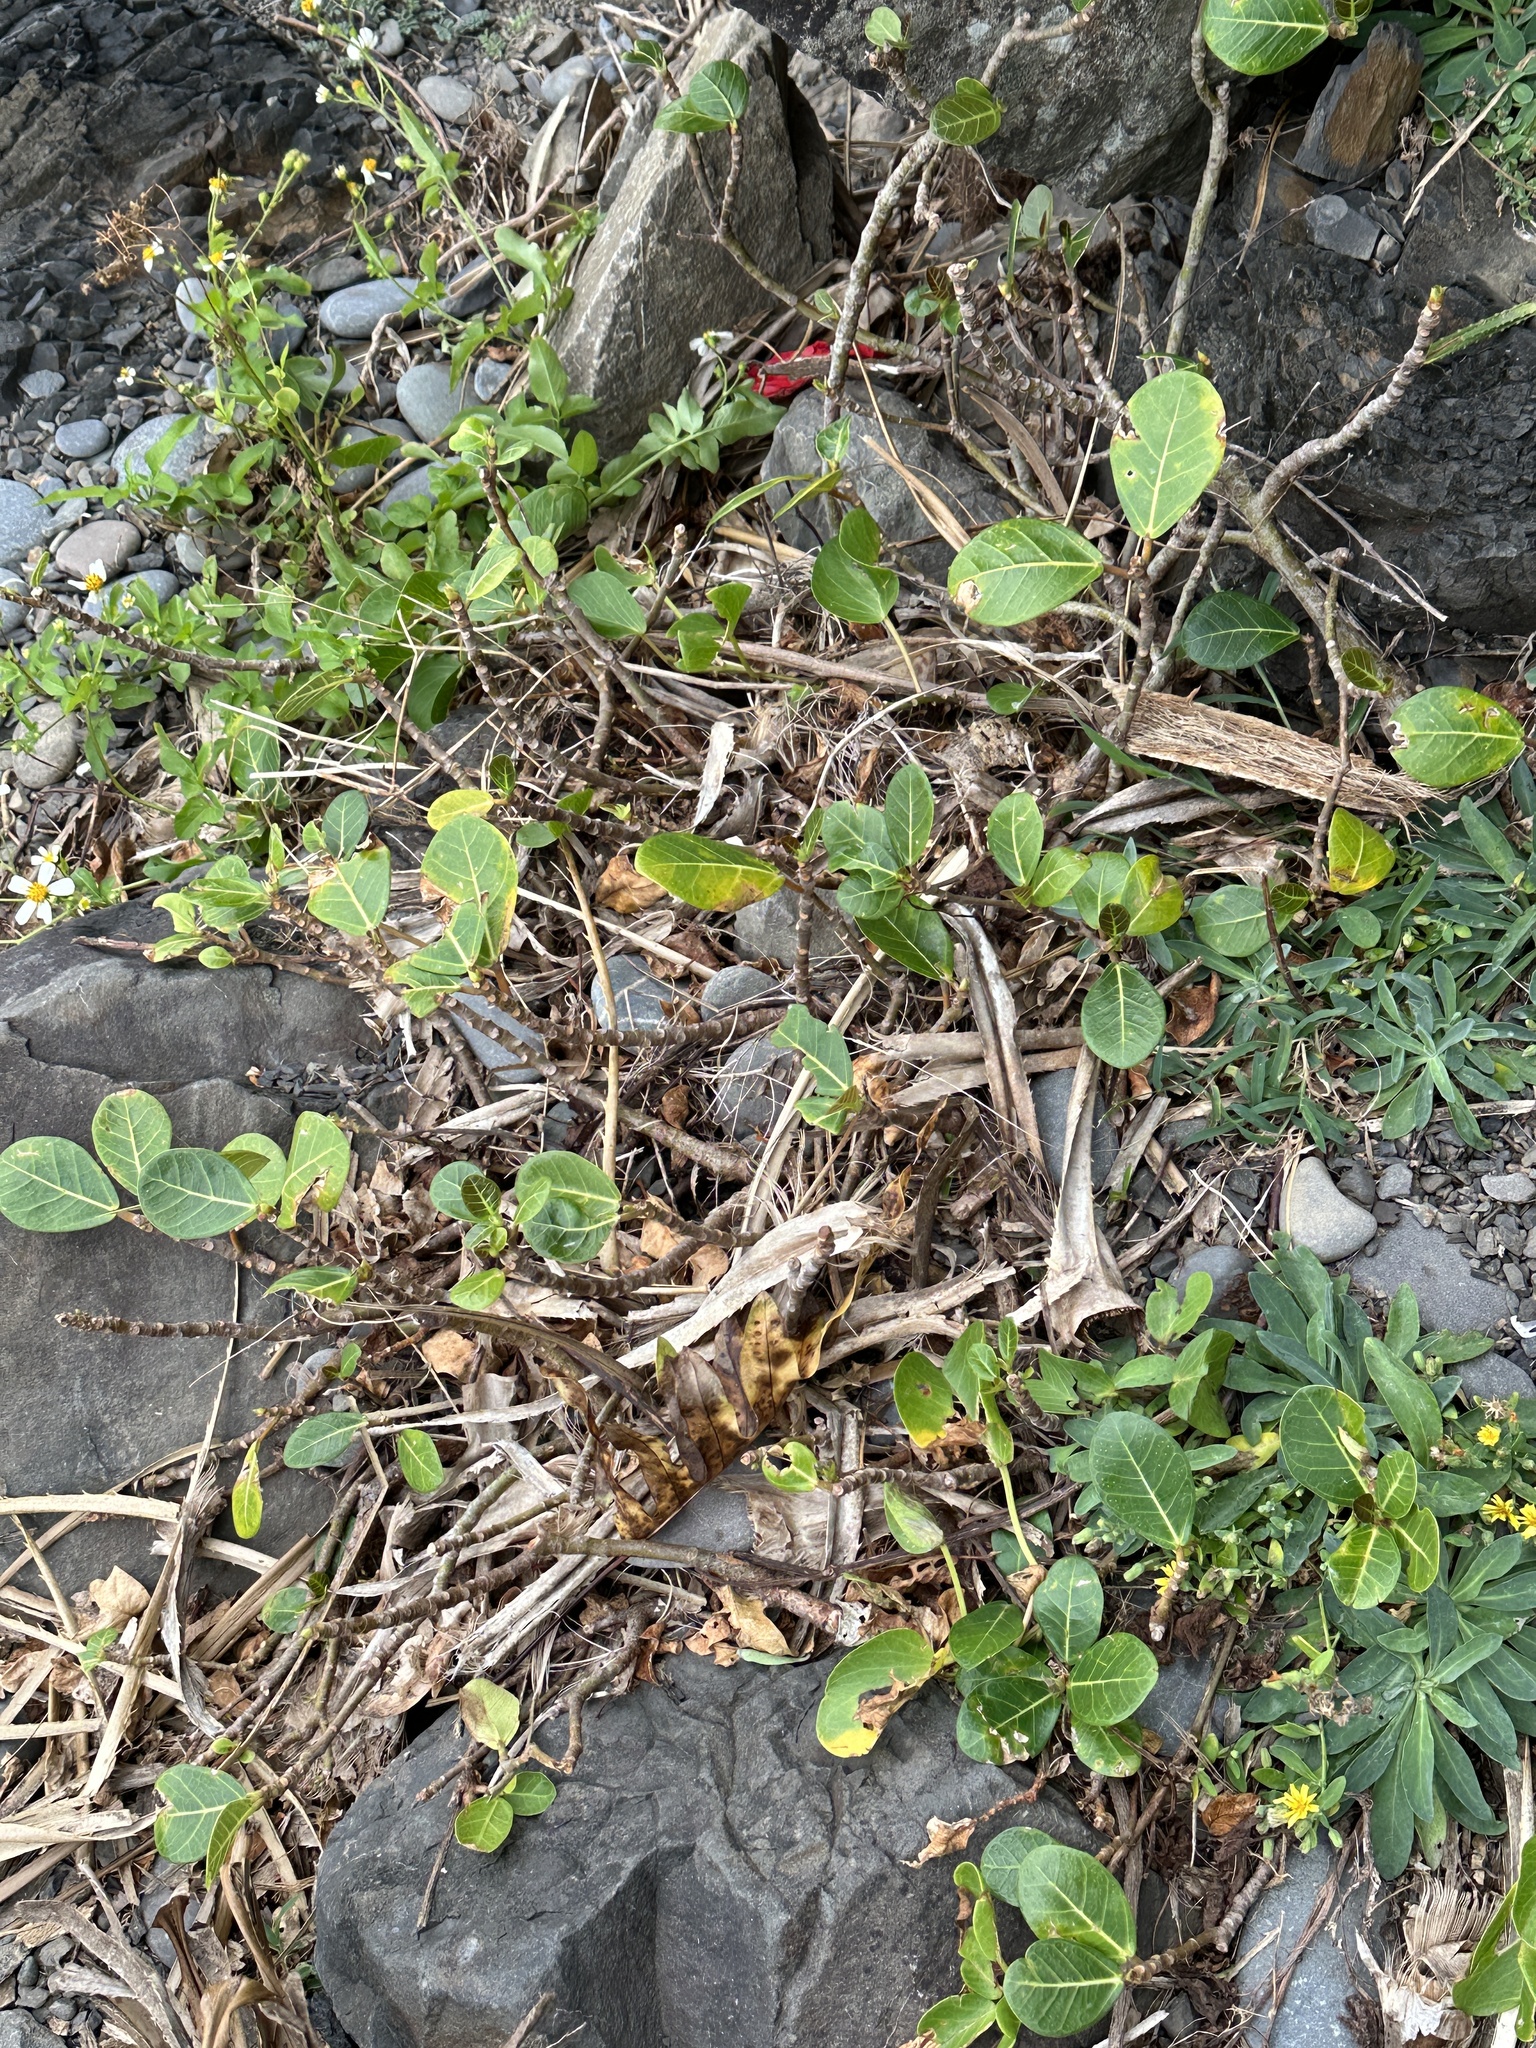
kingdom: Plantae
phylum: Tracheophyta
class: Magnoliopsida
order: Rosales
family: Moraceae
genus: Ficus
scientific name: Ficus tinctoria
